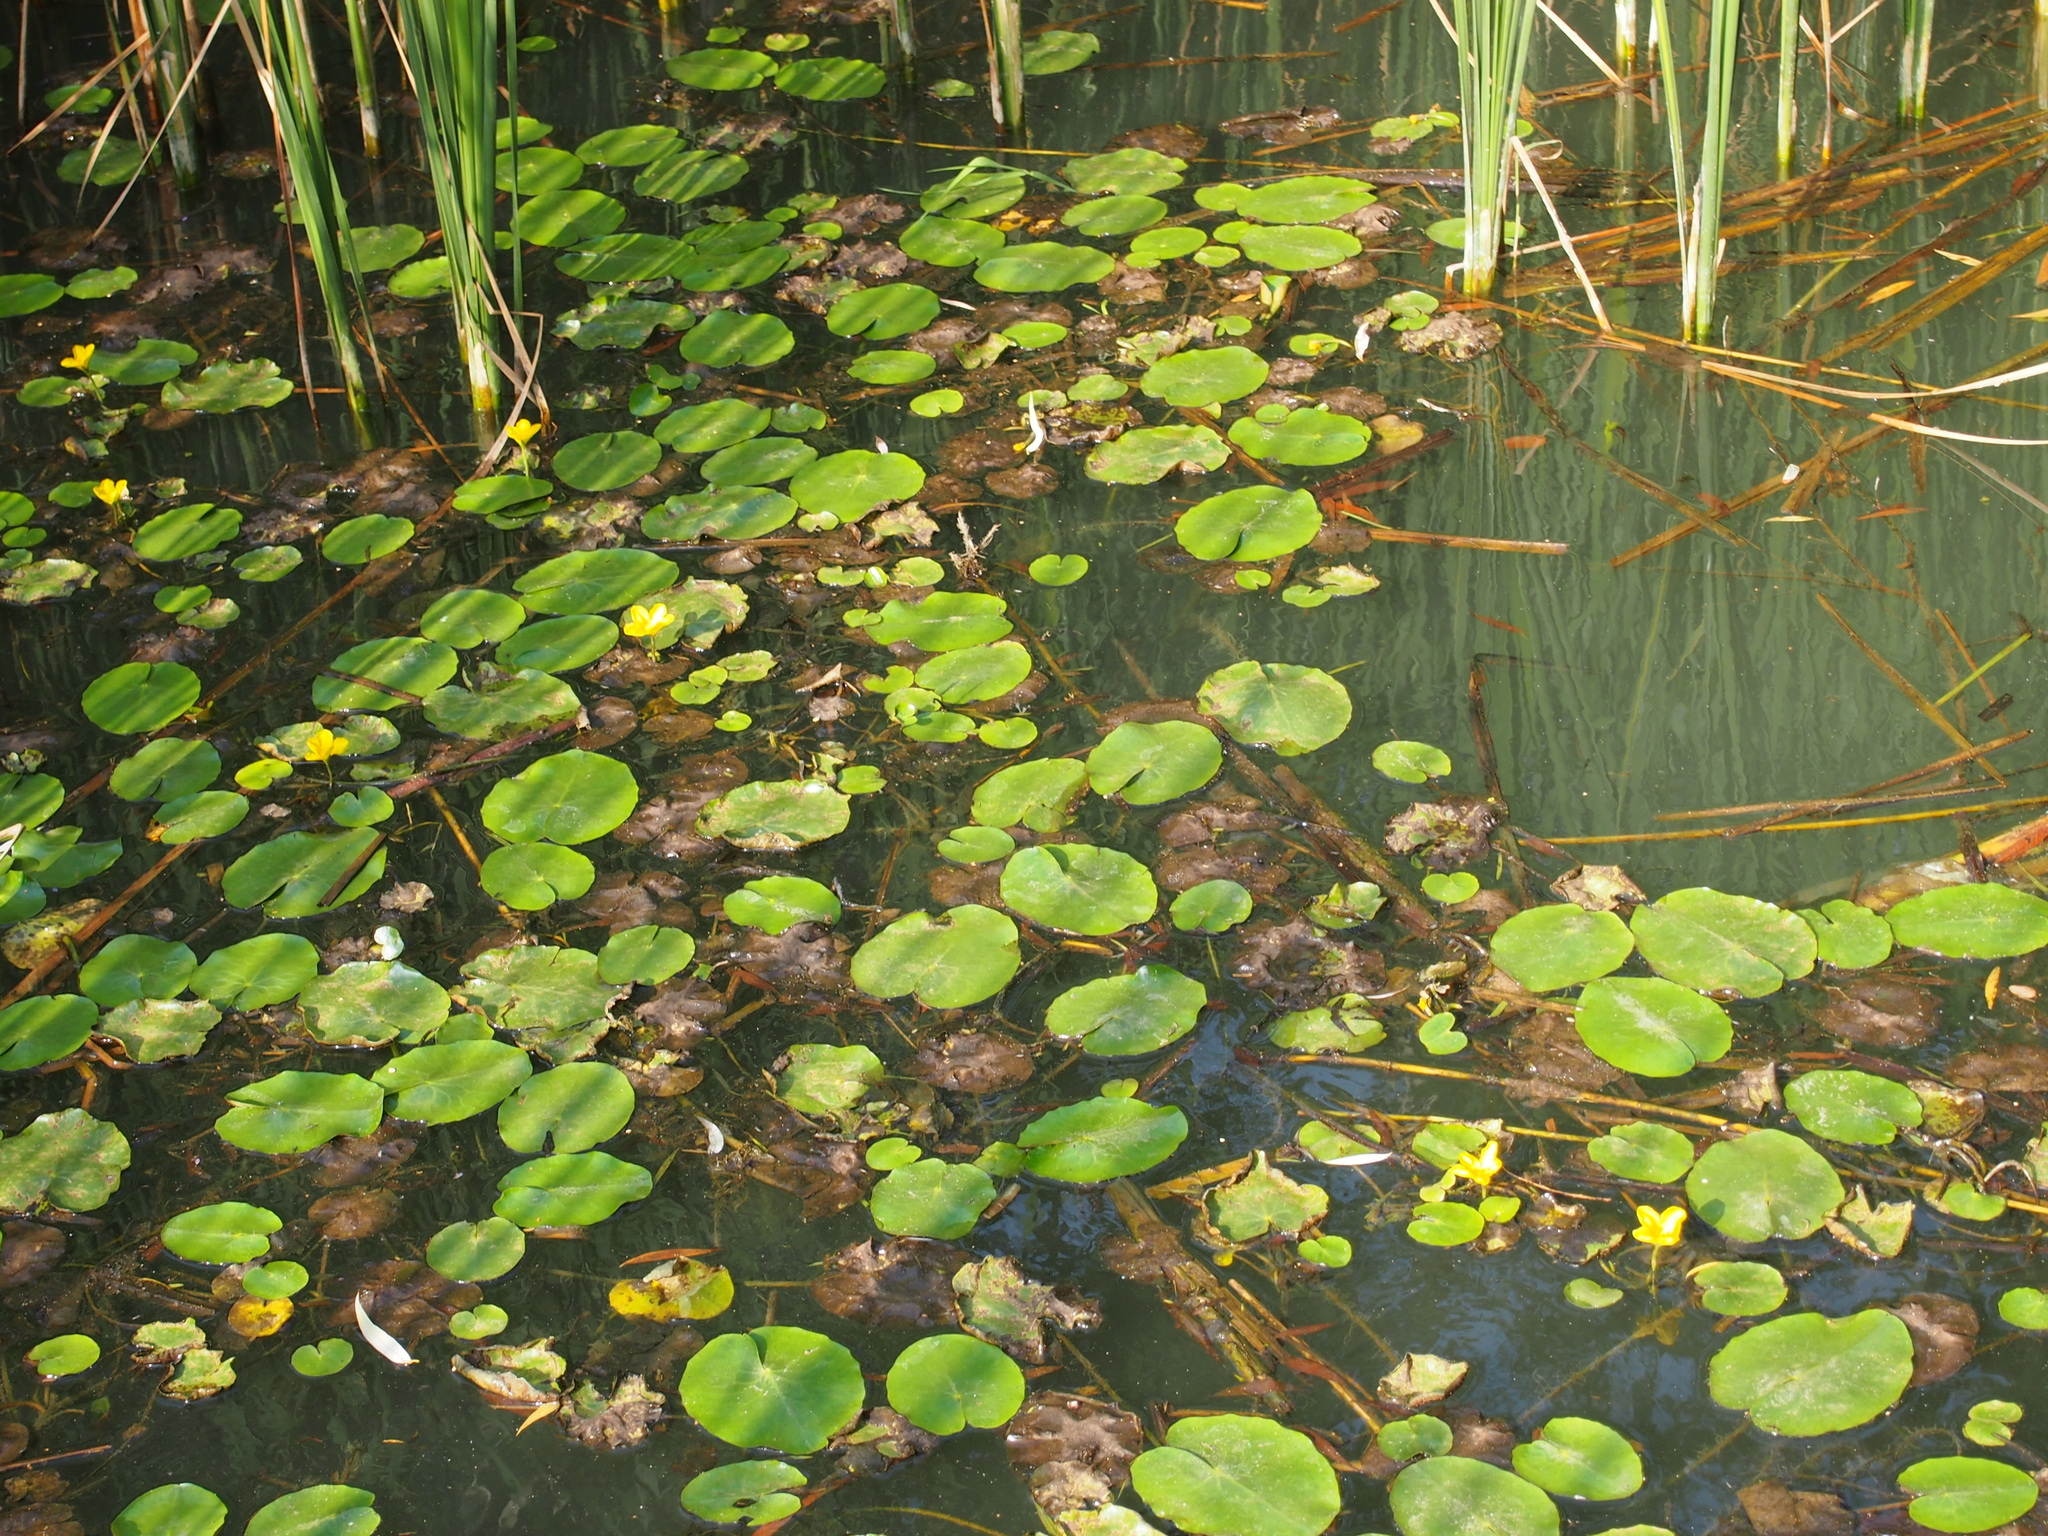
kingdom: Plantae
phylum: Tracheophyta
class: Magnoliopsida
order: Asterales
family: Menyanthaceae
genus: Nymphoides
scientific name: Nymphoides peltata
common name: Fringed water-lily
